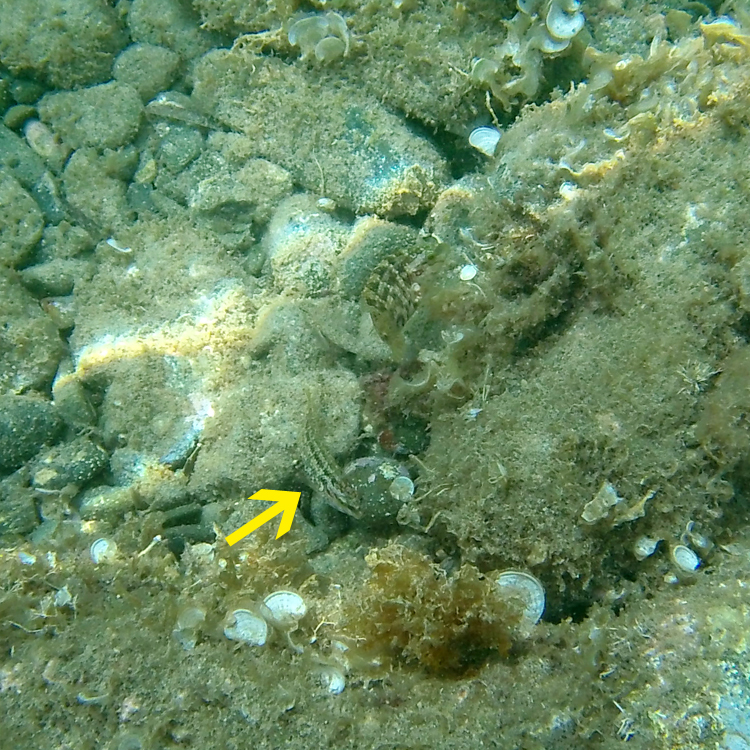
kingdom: Animalia
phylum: Chordata
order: Perciformes
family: Labridae
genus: Symphodus
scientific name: Symphodus roissali
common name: Five-spotted wrasse
